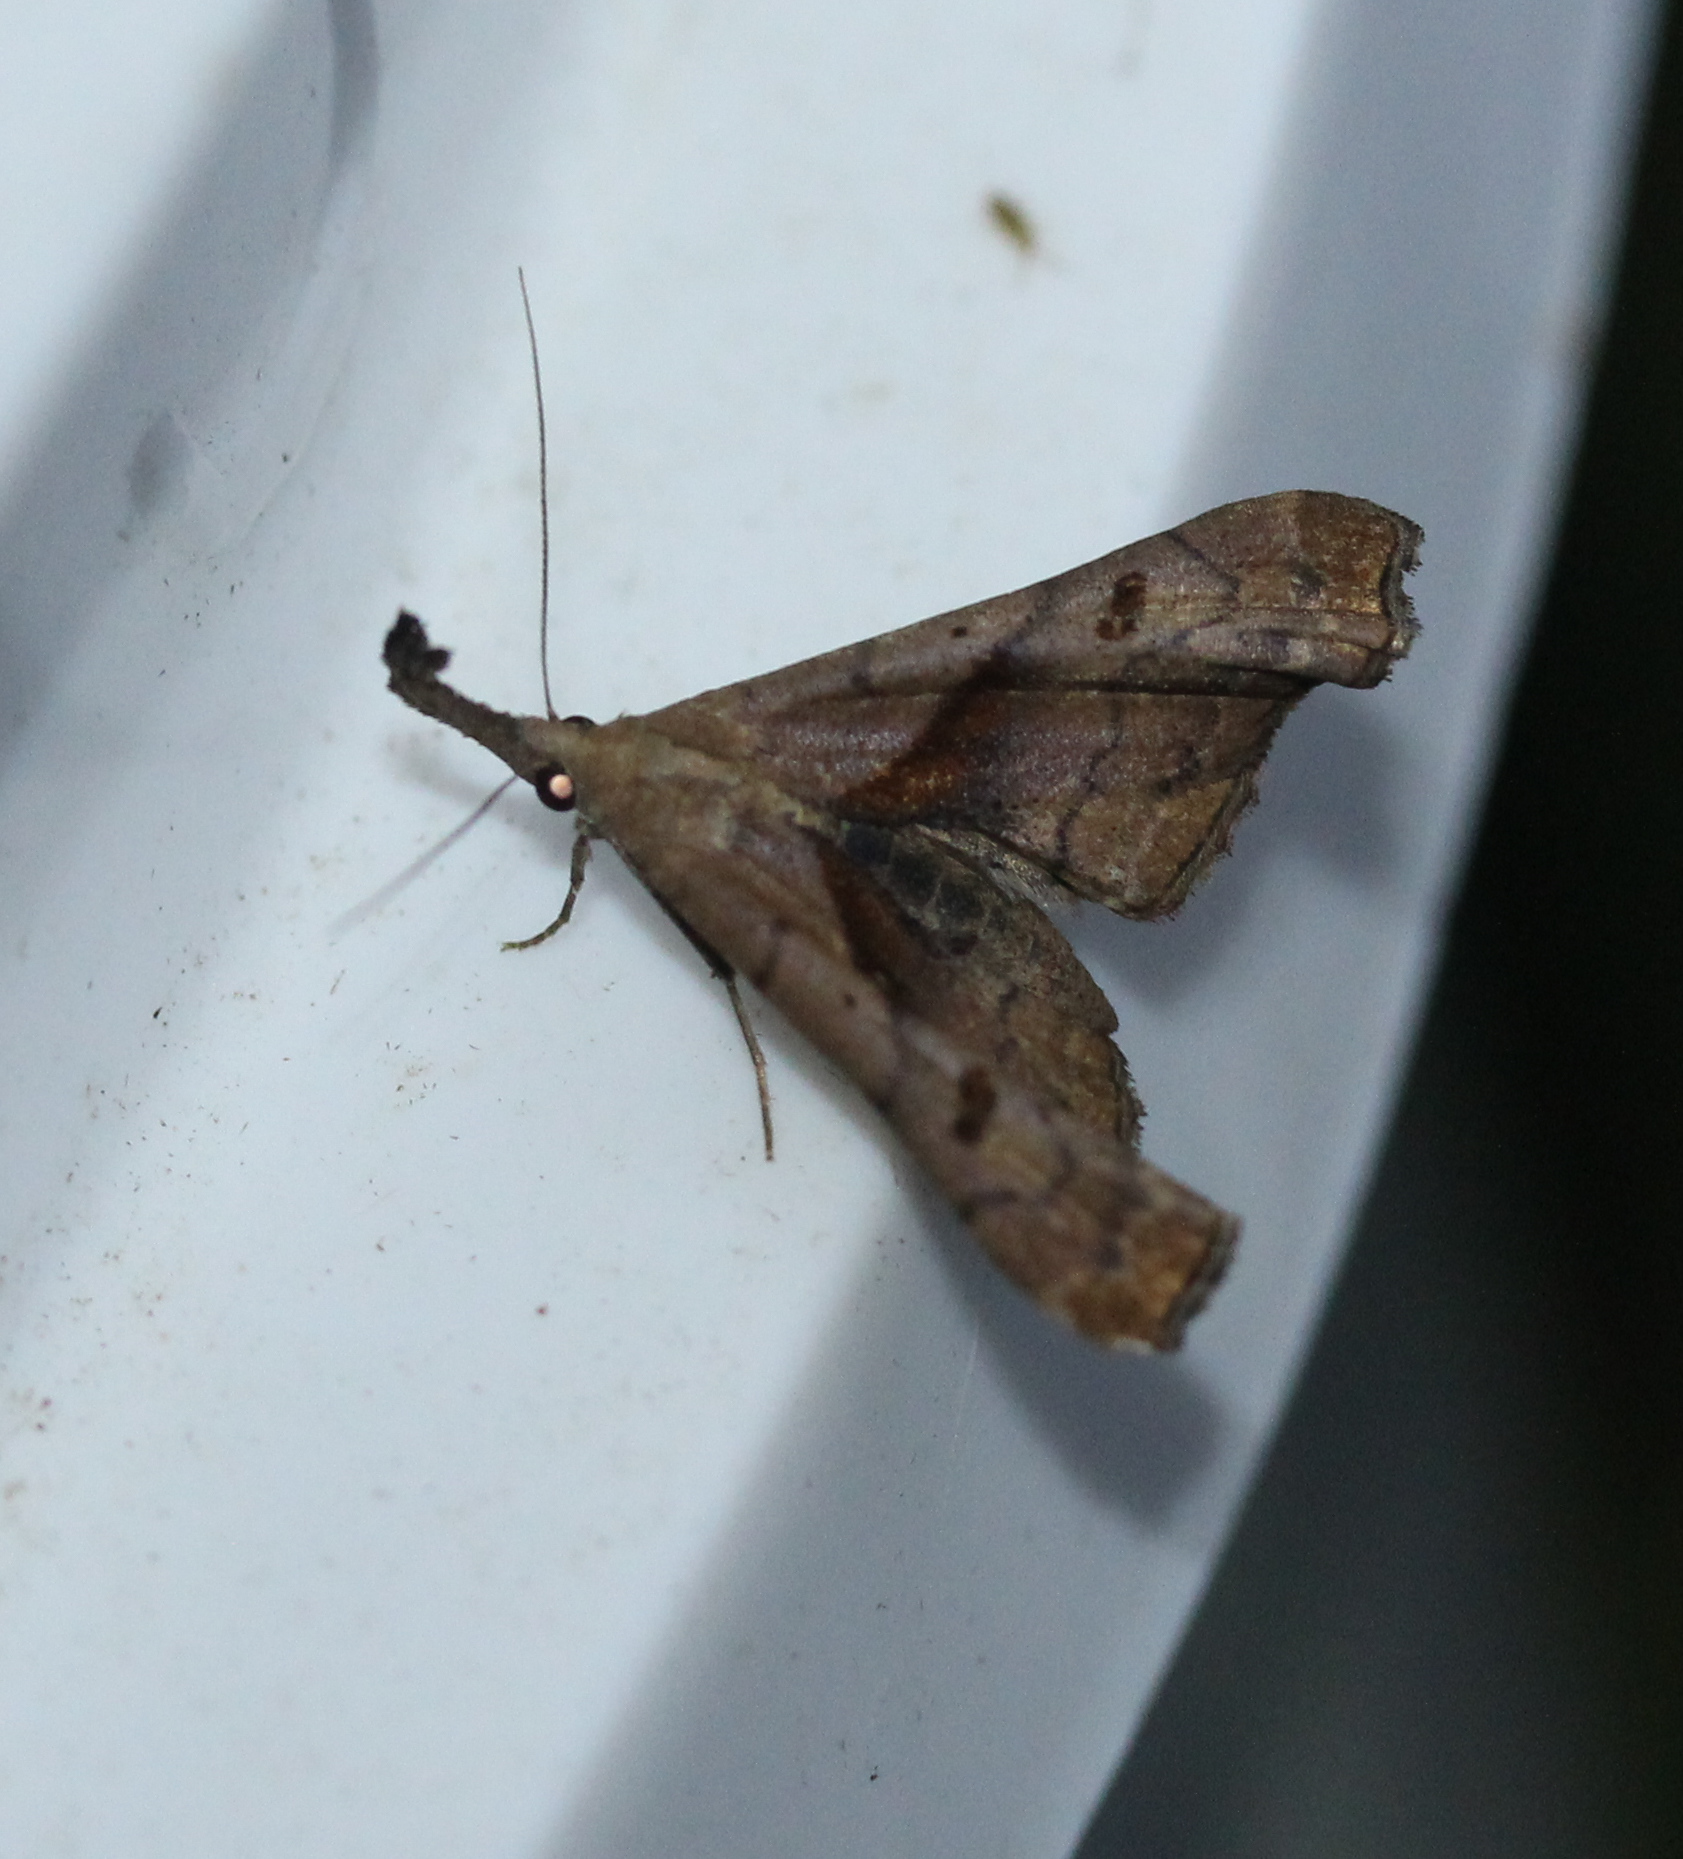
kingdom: Animalia
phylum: Arthropoda
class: Insecta
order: Lepidoptera
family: Erebidae
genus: Palthis
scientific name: Palthis angulalis
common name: Dark-spotted palthis moth
